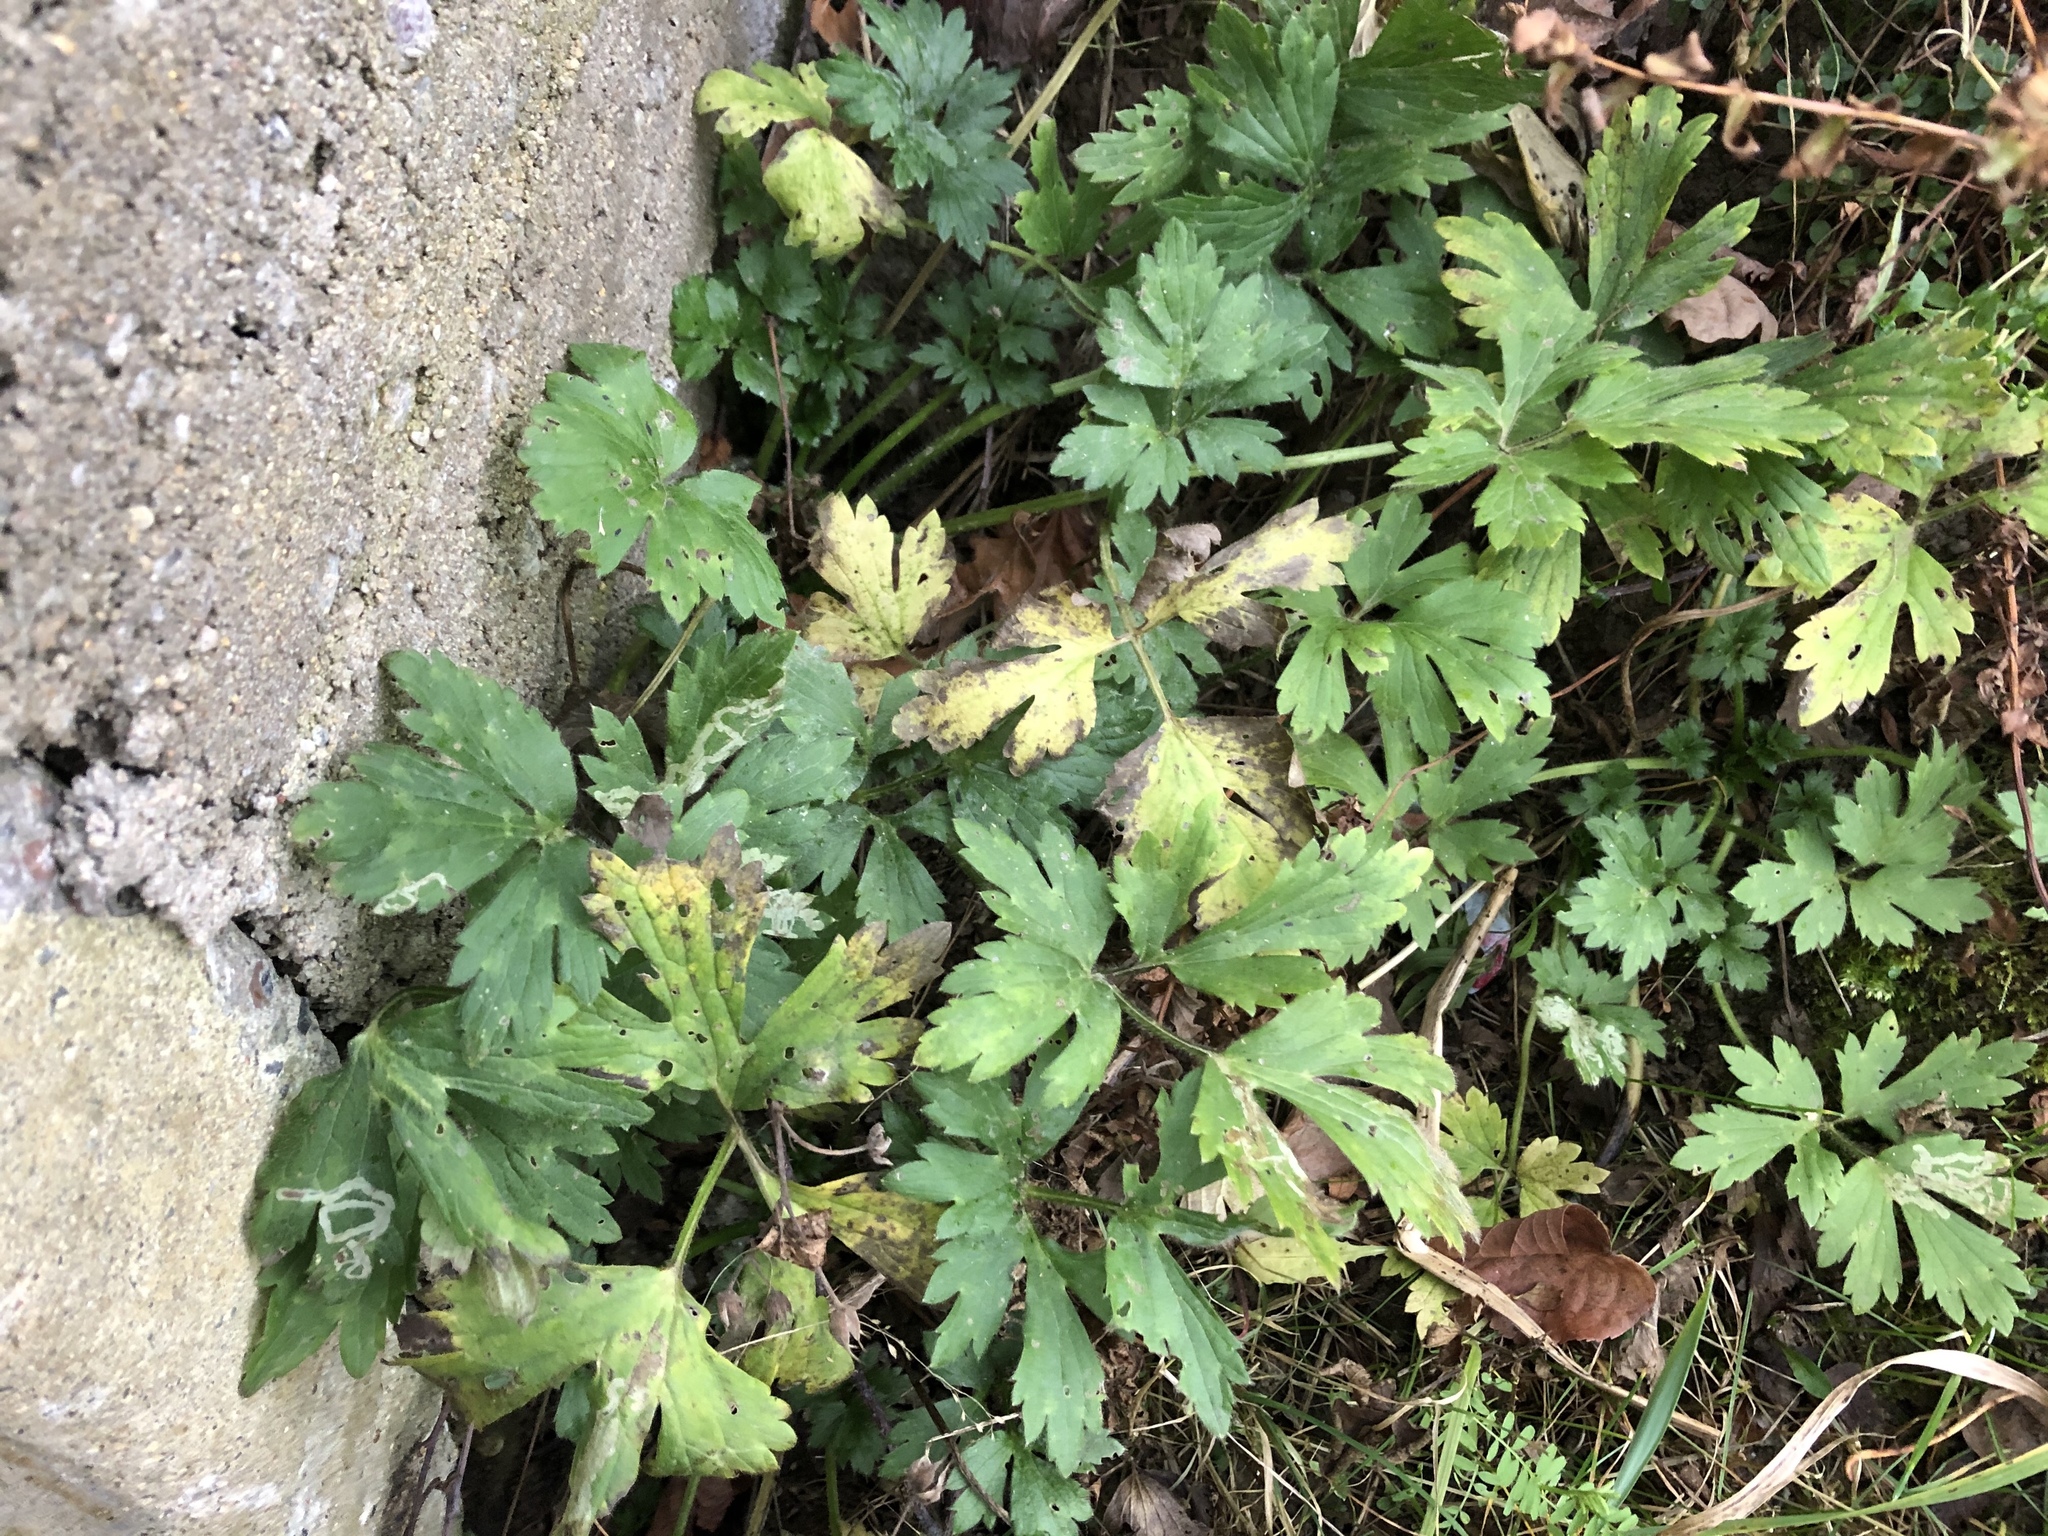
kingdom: Plantae
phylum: Tracheophyta
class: Magnoliopsida
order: Ranunculales
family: Ranunculaceae
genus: Ranunculus
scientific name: Ranunculus repens
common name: Creeping buttercup
